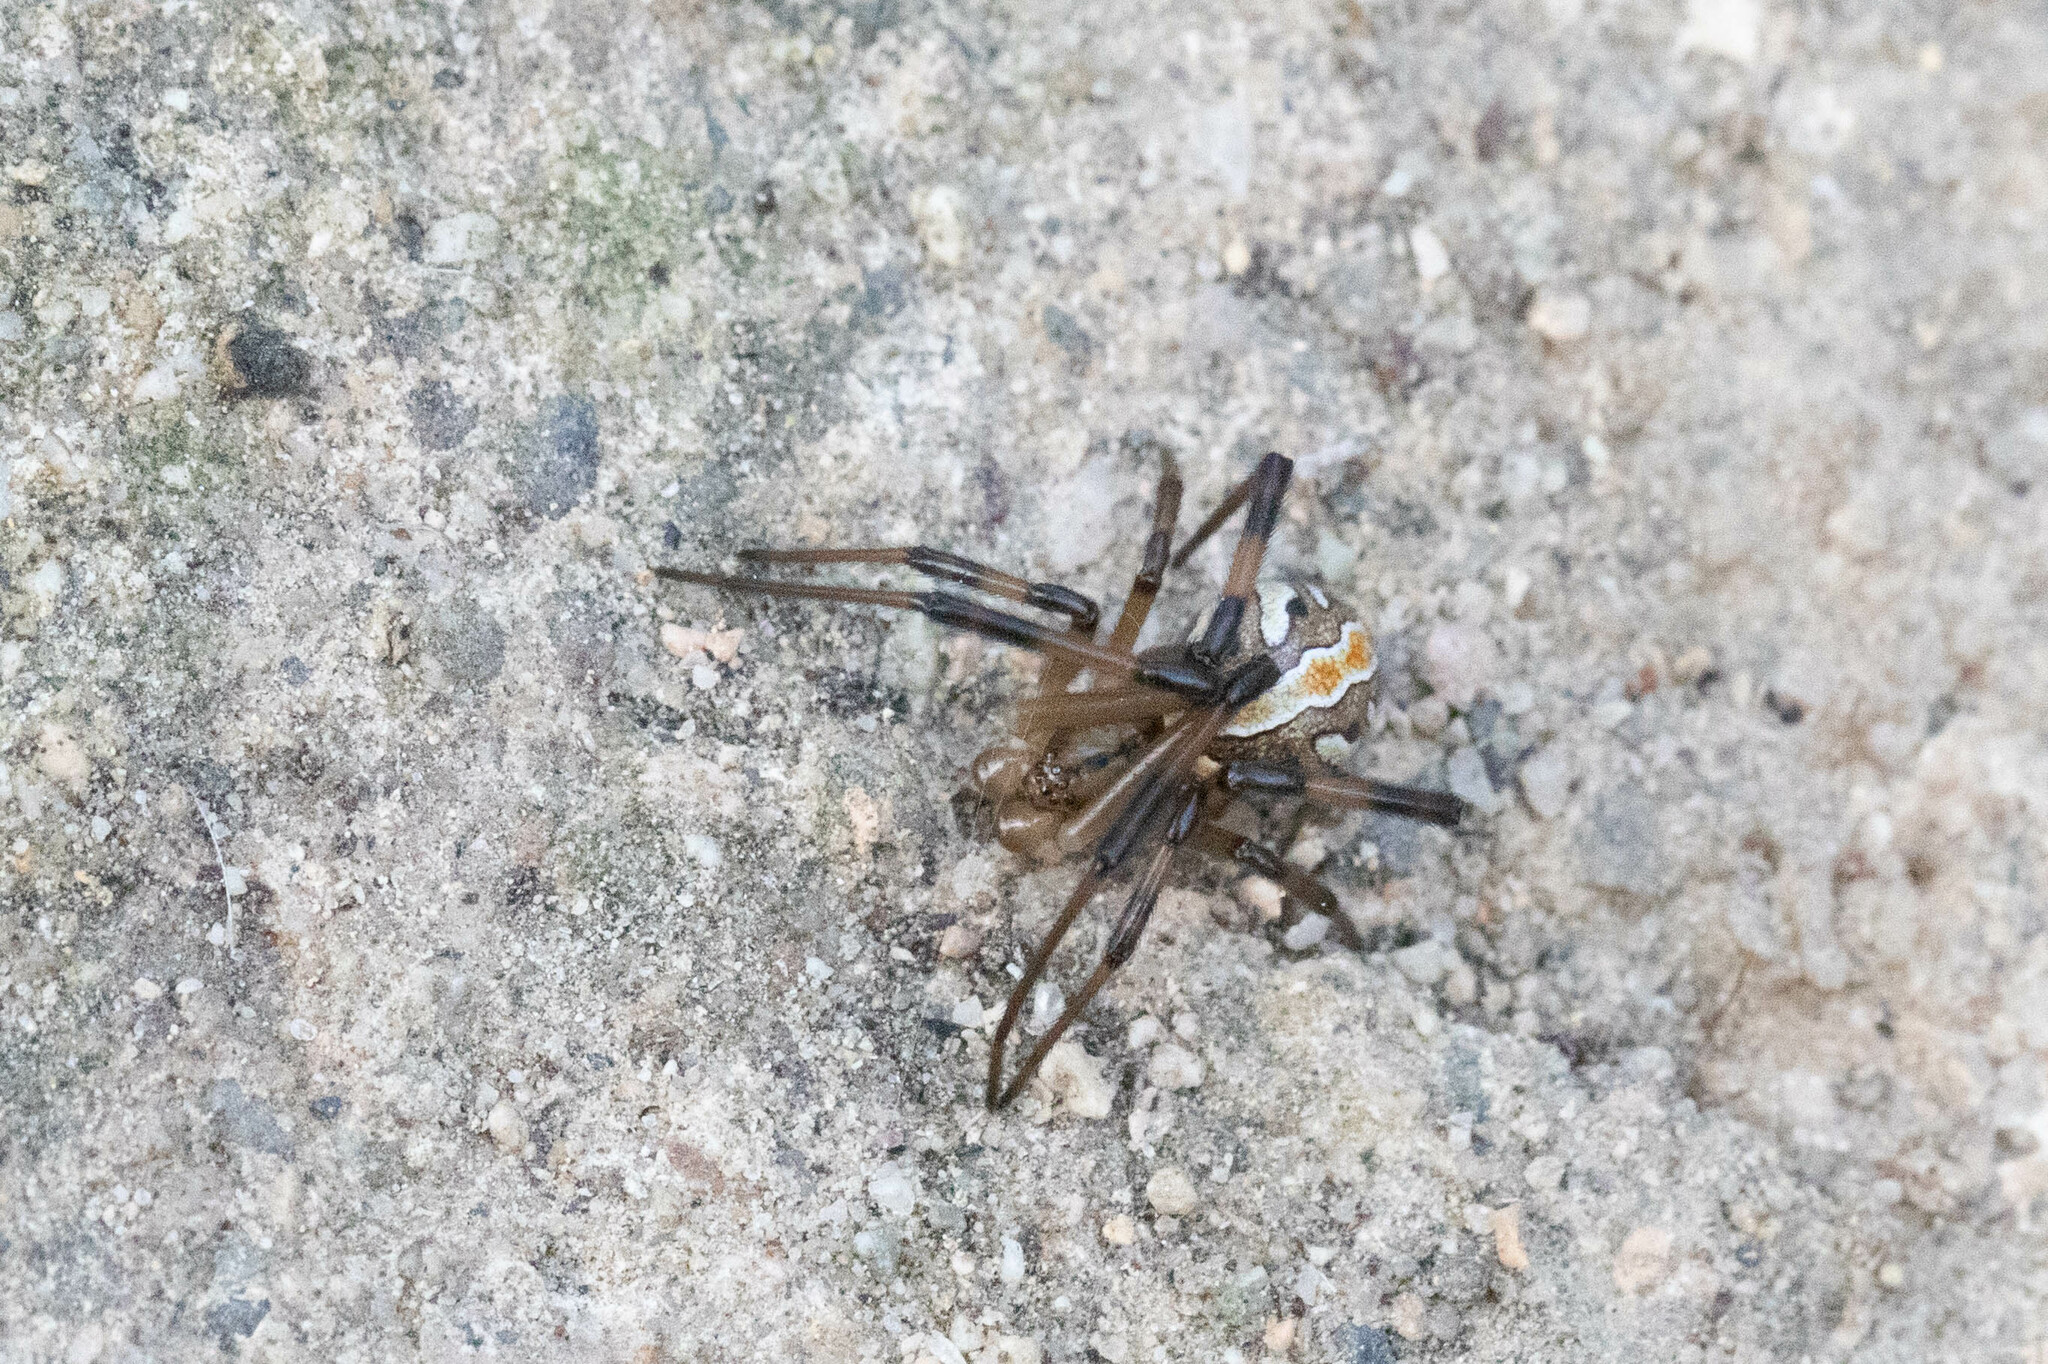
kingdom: Animalia
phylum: Arthropoda
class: Arachnida
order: Araneae
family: Theridiidae
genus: Latrodectus
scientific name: Latrodectus hesperus
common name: Western black widow
